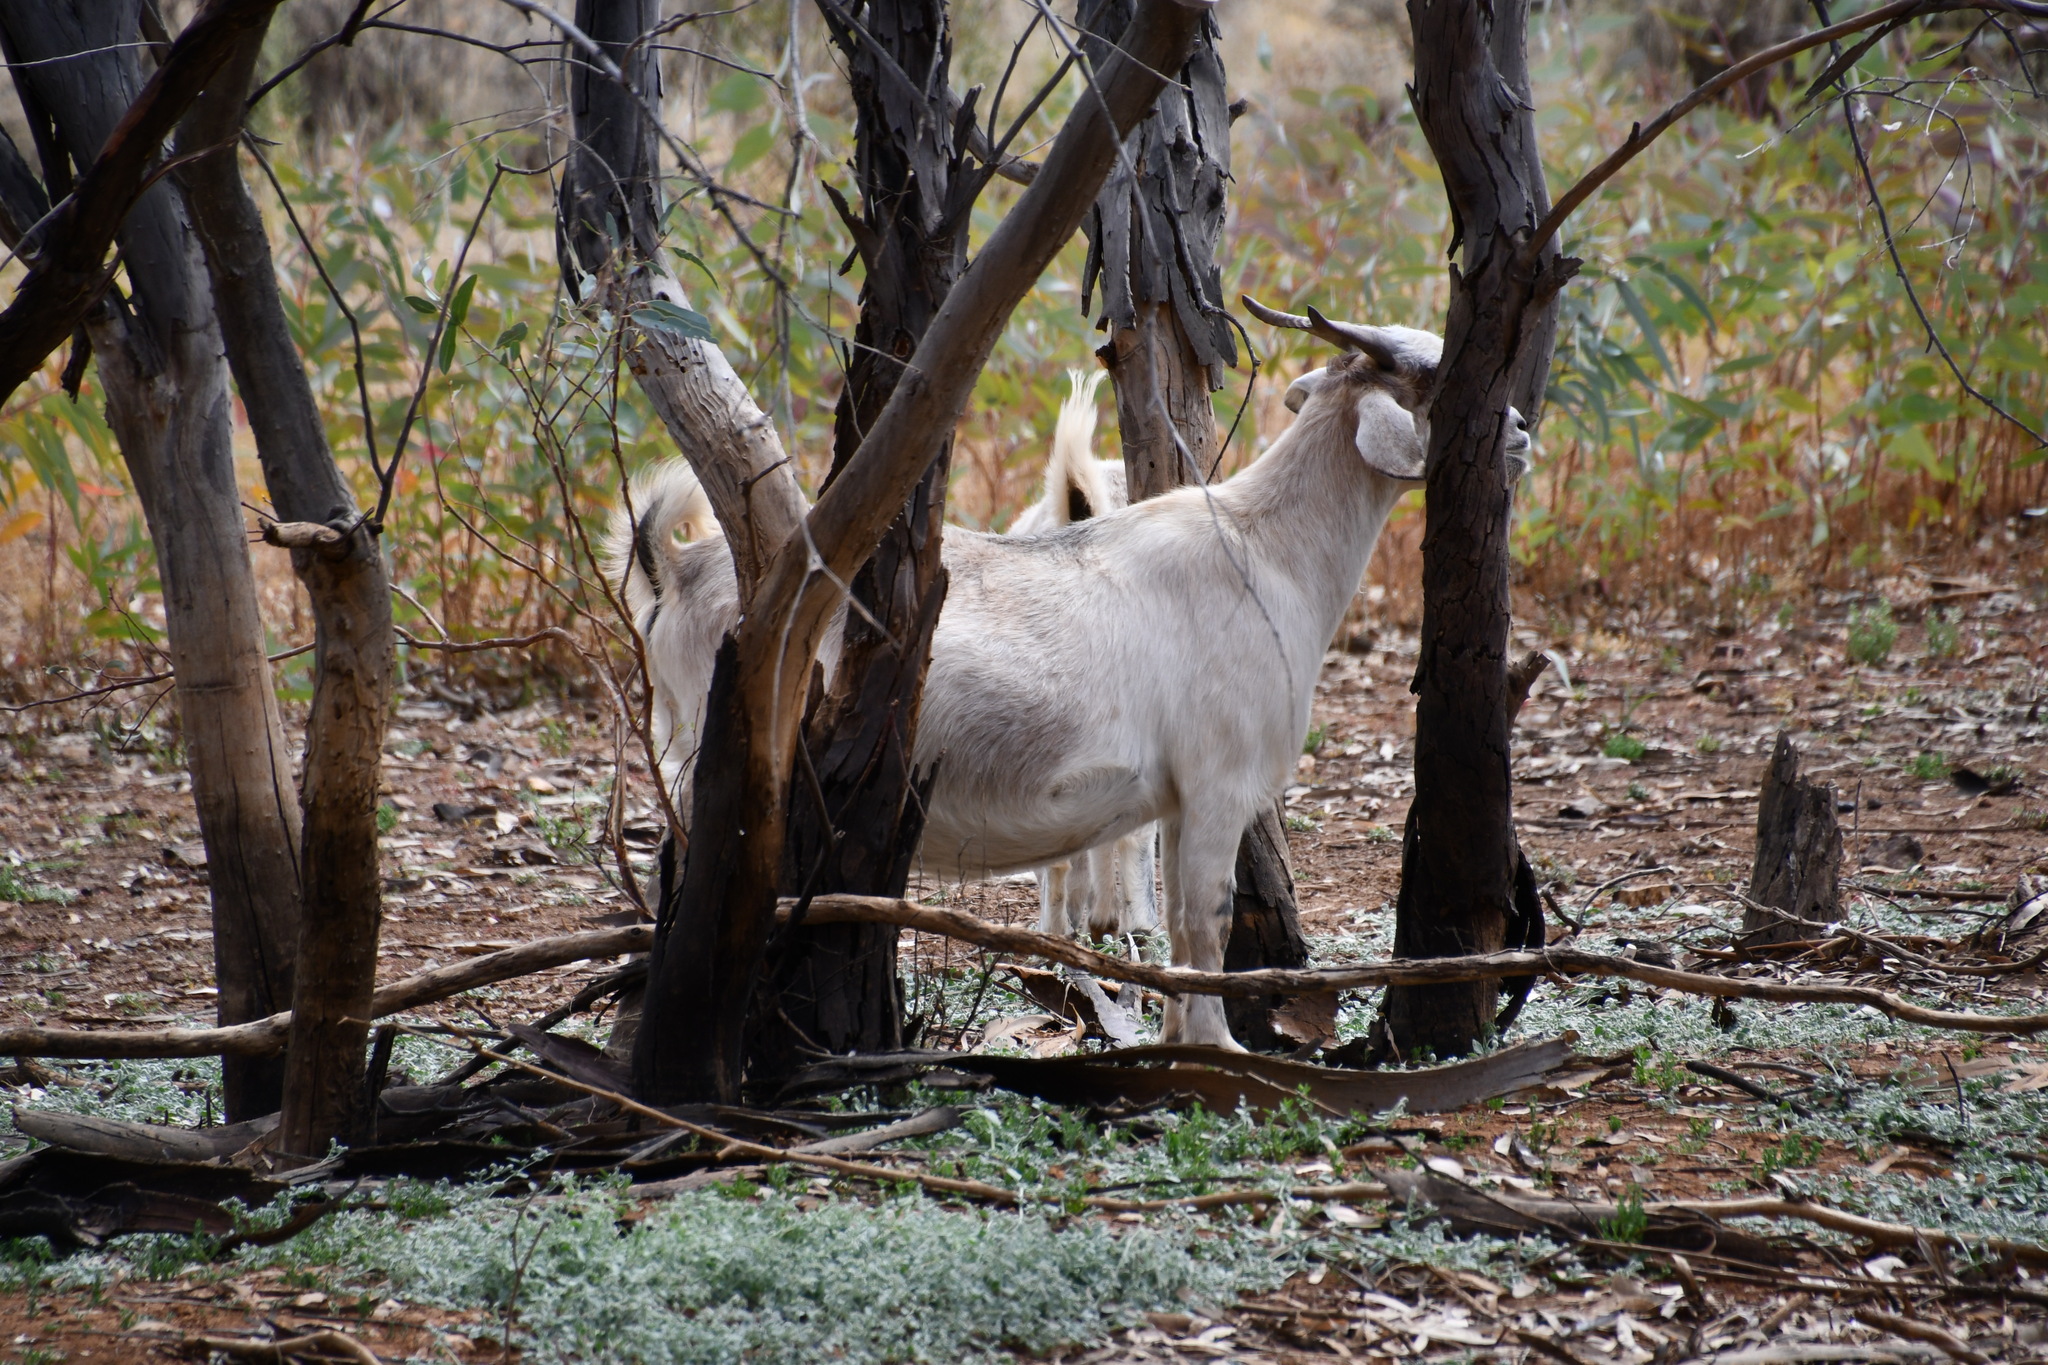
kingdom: Animalia
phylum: Chordata
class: Mammalia
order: Artiodactyla
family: Bovidae
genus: Capra
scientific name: Capra hircus
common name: Domestic goat
